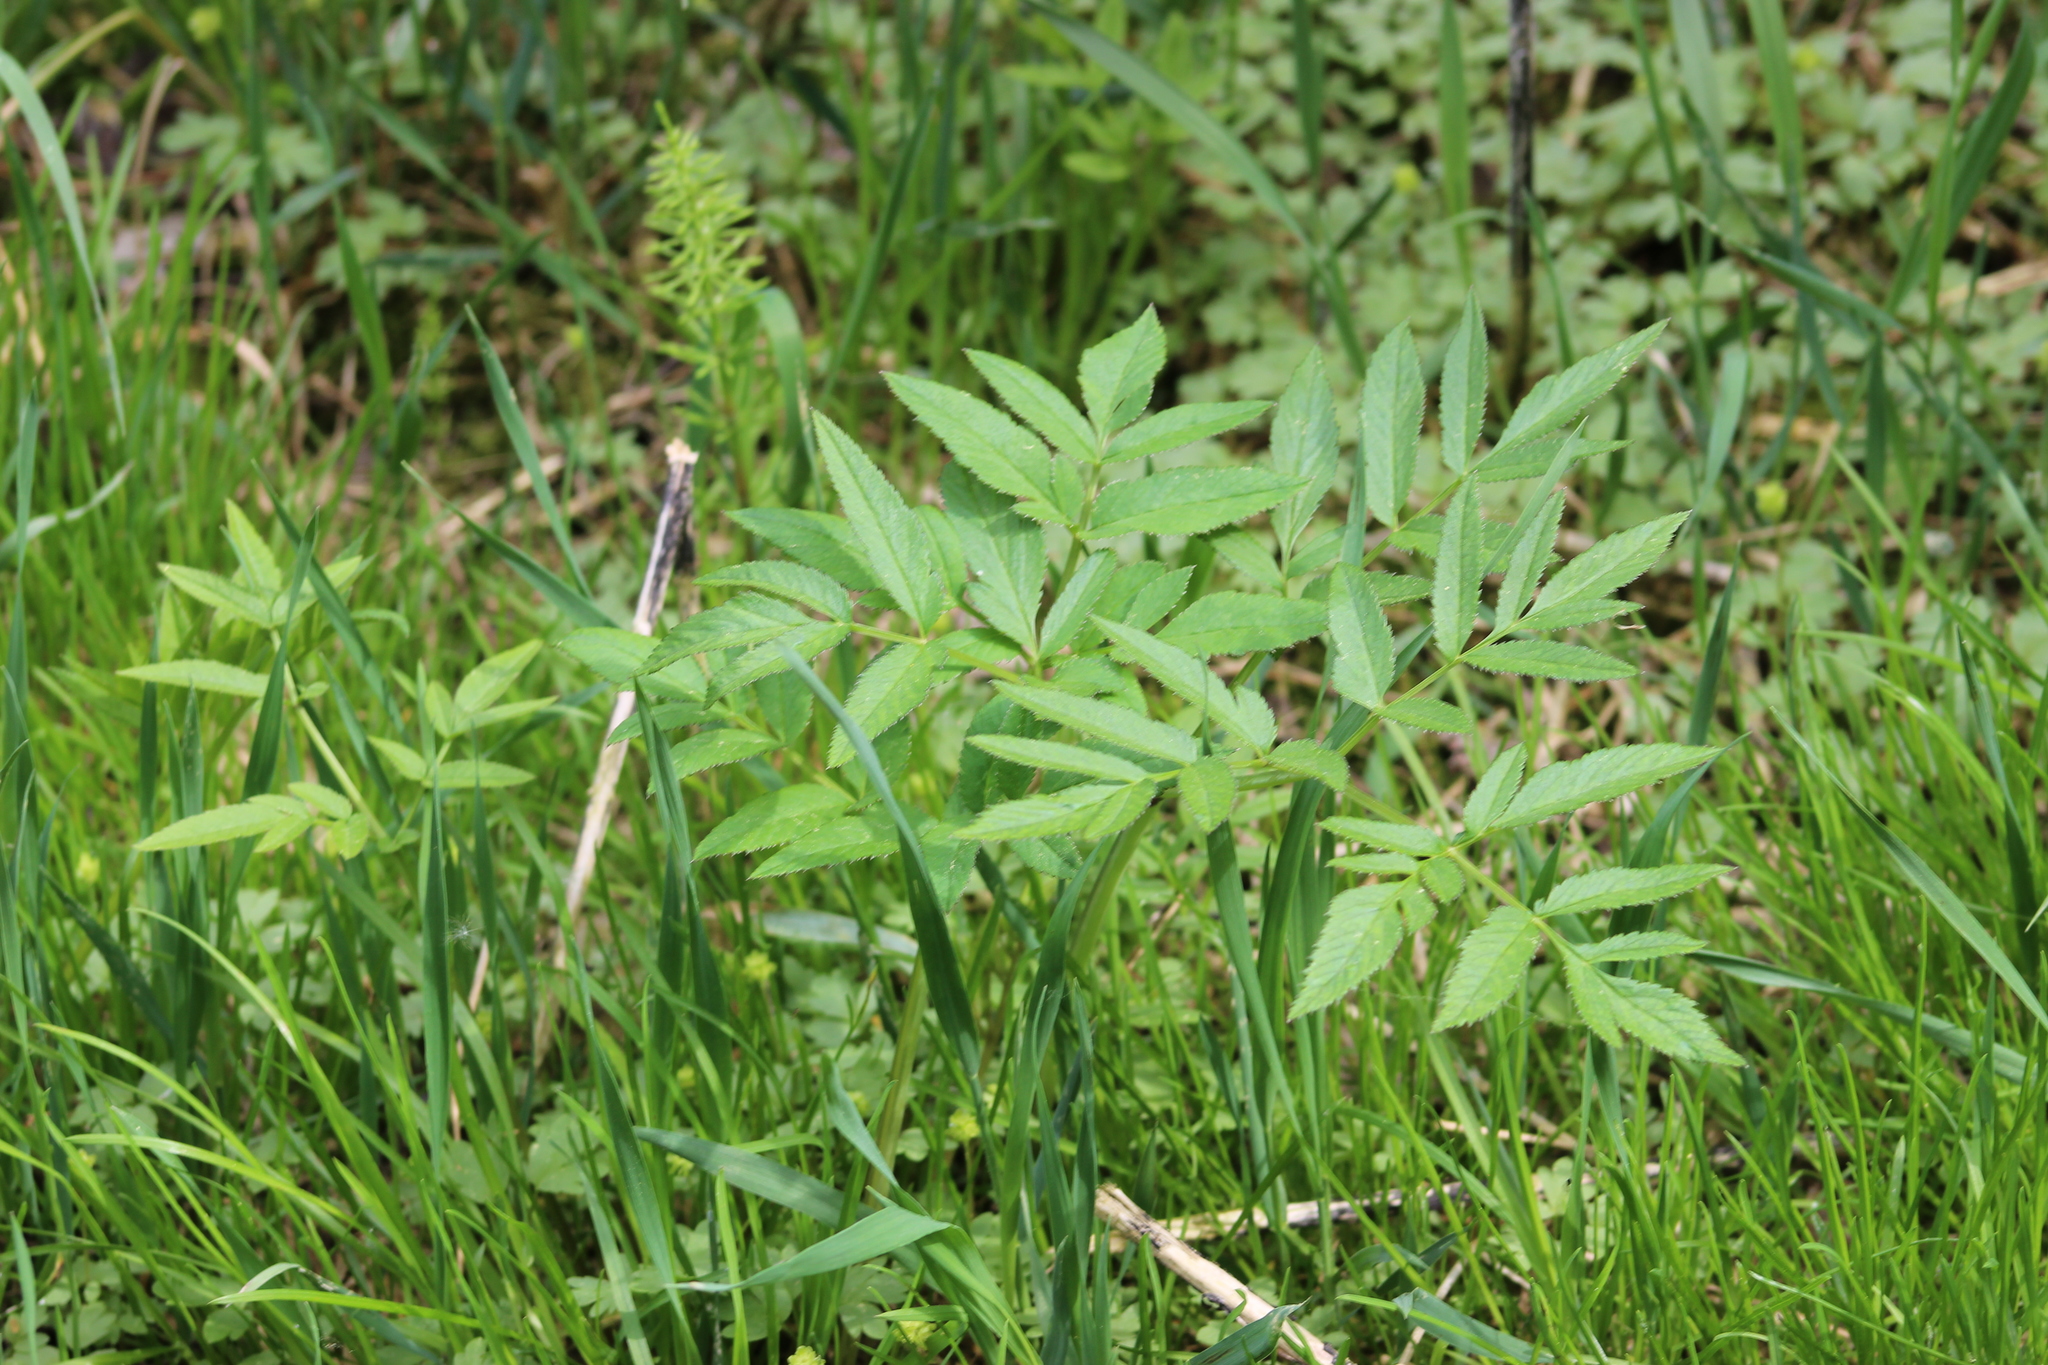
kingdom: Plantae
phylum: Tracheophyta
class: Magnoliopsida
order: Apiales
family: Apiaceae
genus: Angelica
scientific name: Angelica sylvestris
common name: Wild angelica
